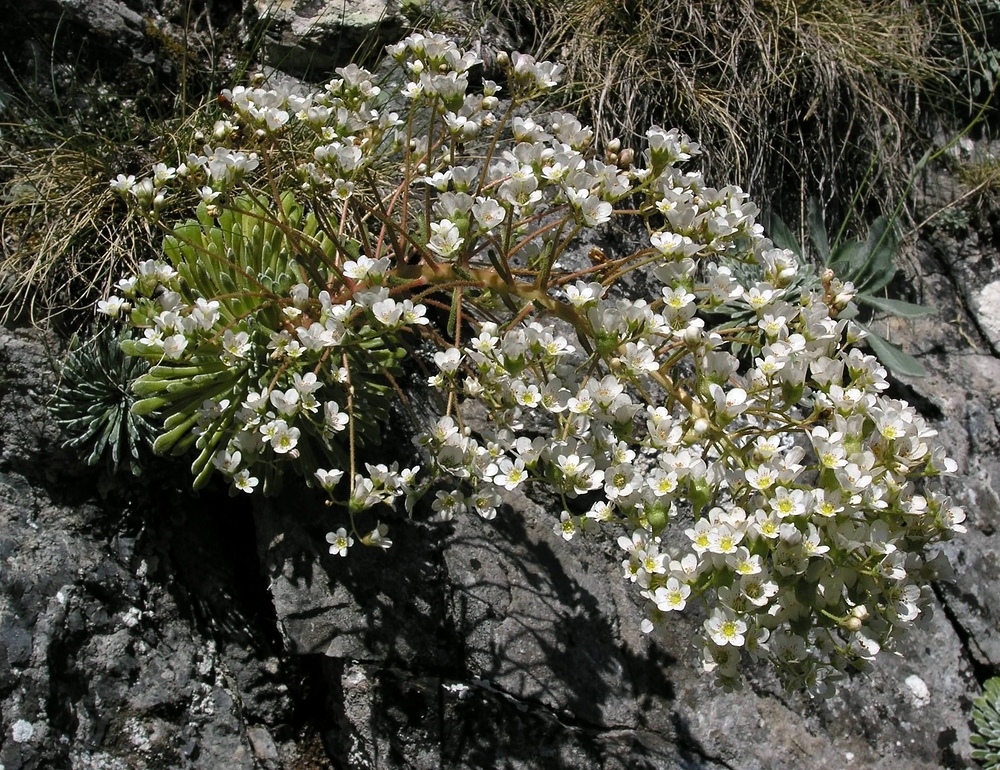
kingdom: Plantae
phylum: Tracheophyta
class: Magnoliopsida
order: Saxifragales
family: Saxifragaceae
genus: Saxifraga
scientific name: Saxifraga longifolia
